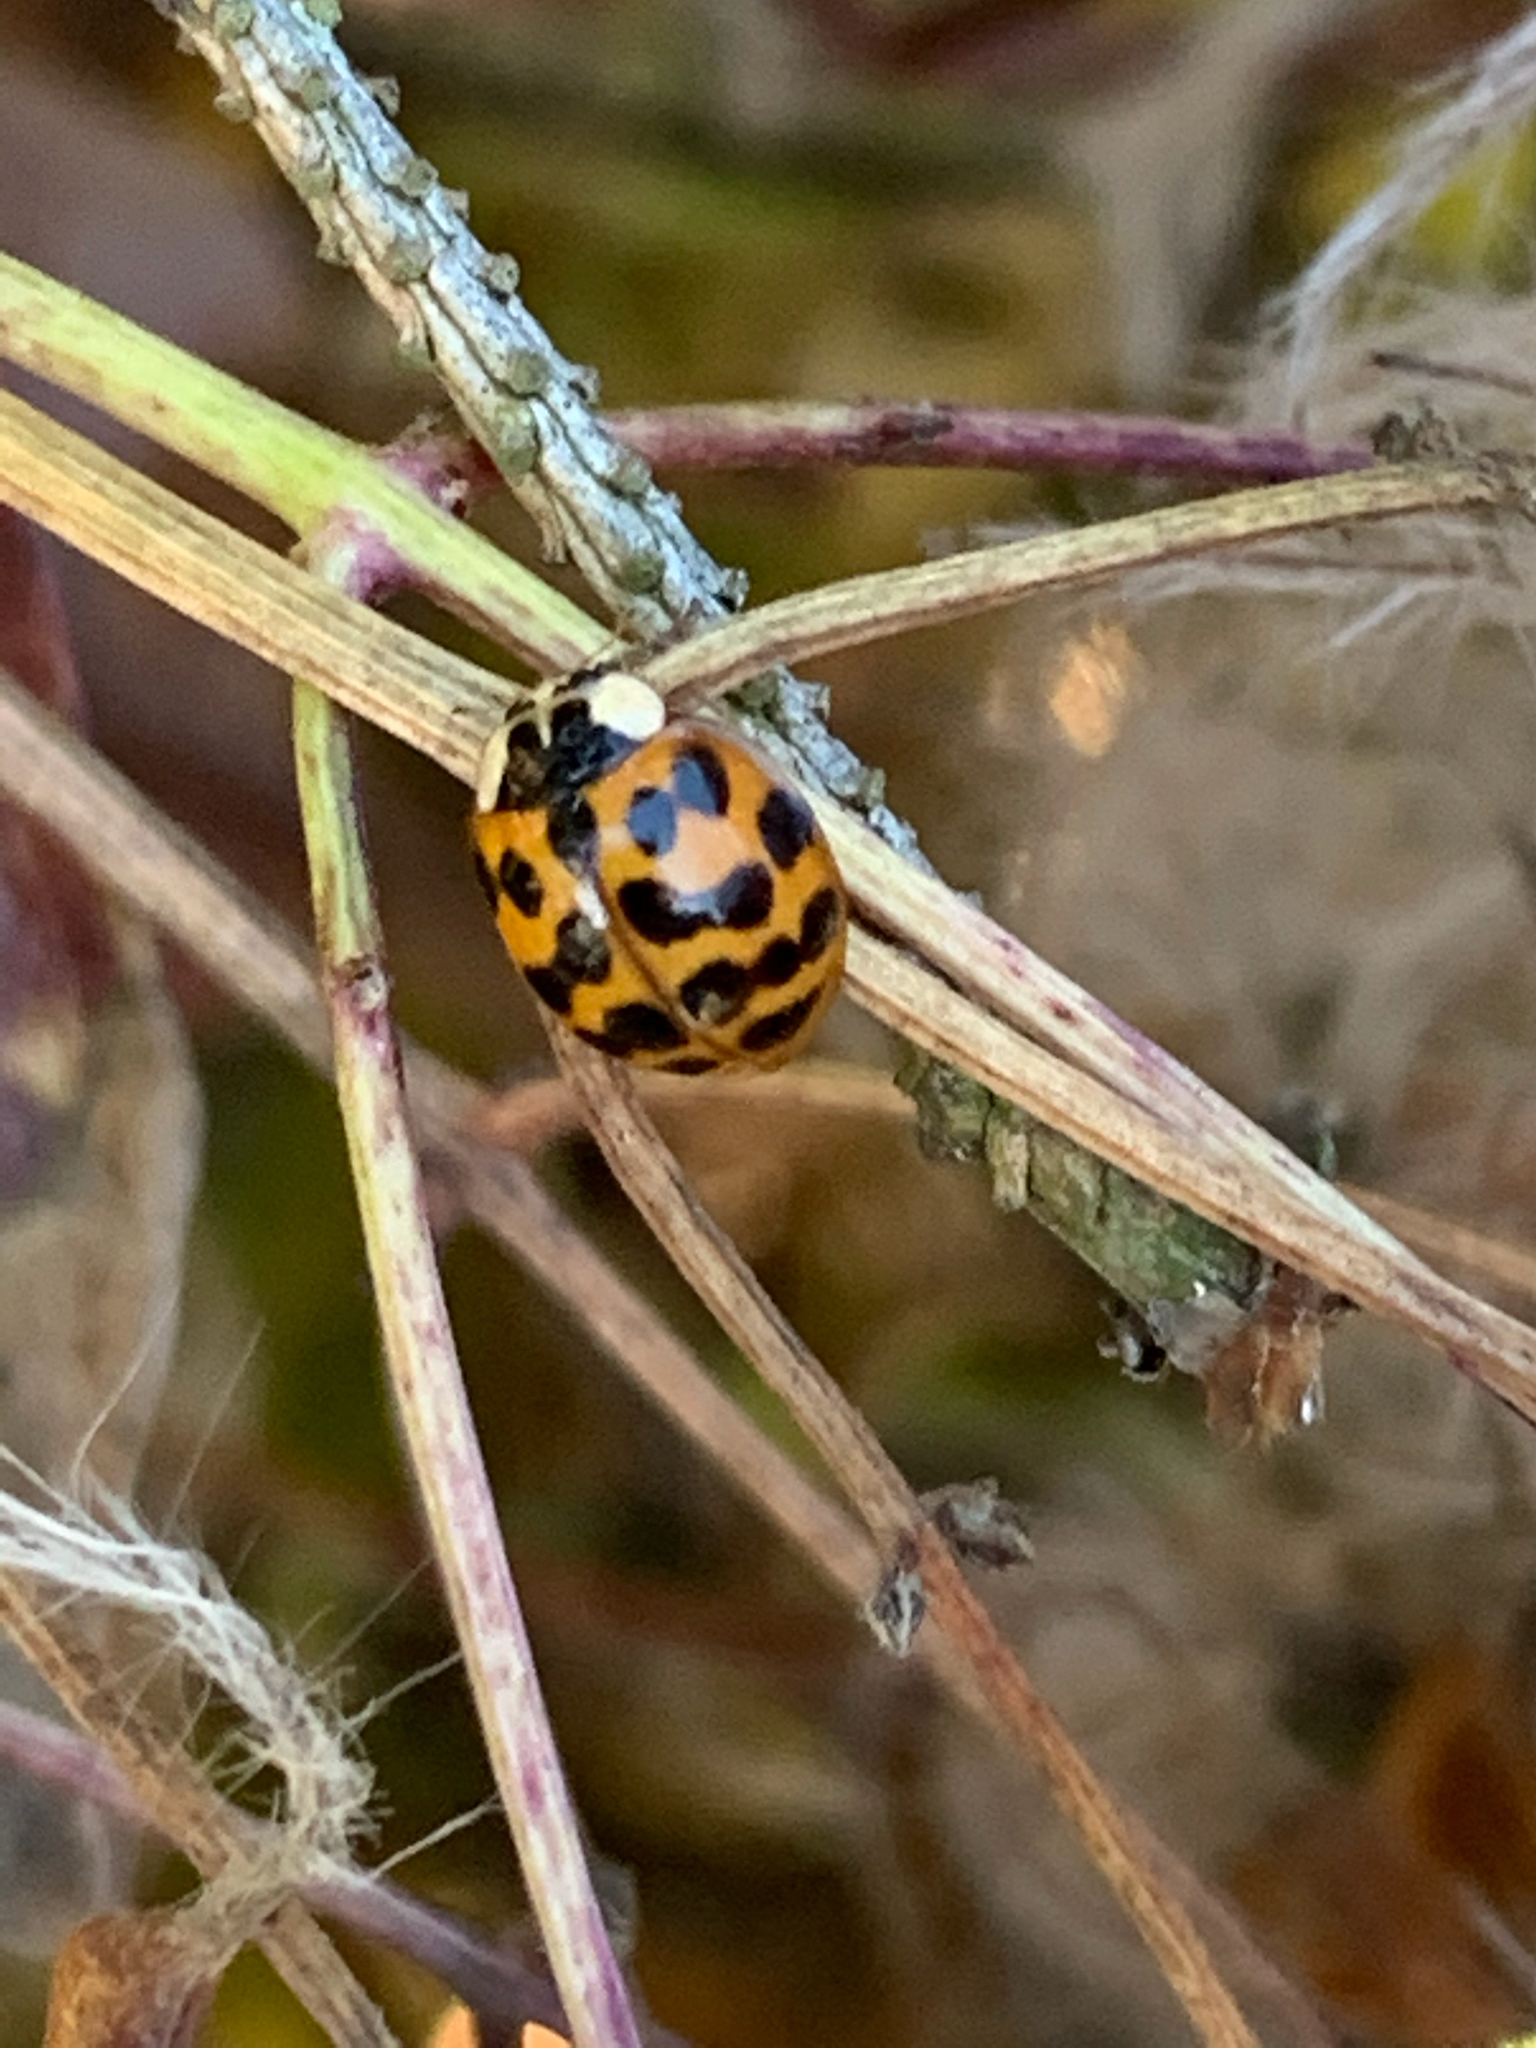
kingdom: Animalia
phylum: Arthropoda
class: Insecta
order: Coleoptera
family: Coccinellidae
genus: Harmonia
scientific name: Harmonia axyridis
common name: Harlequin ladybird
